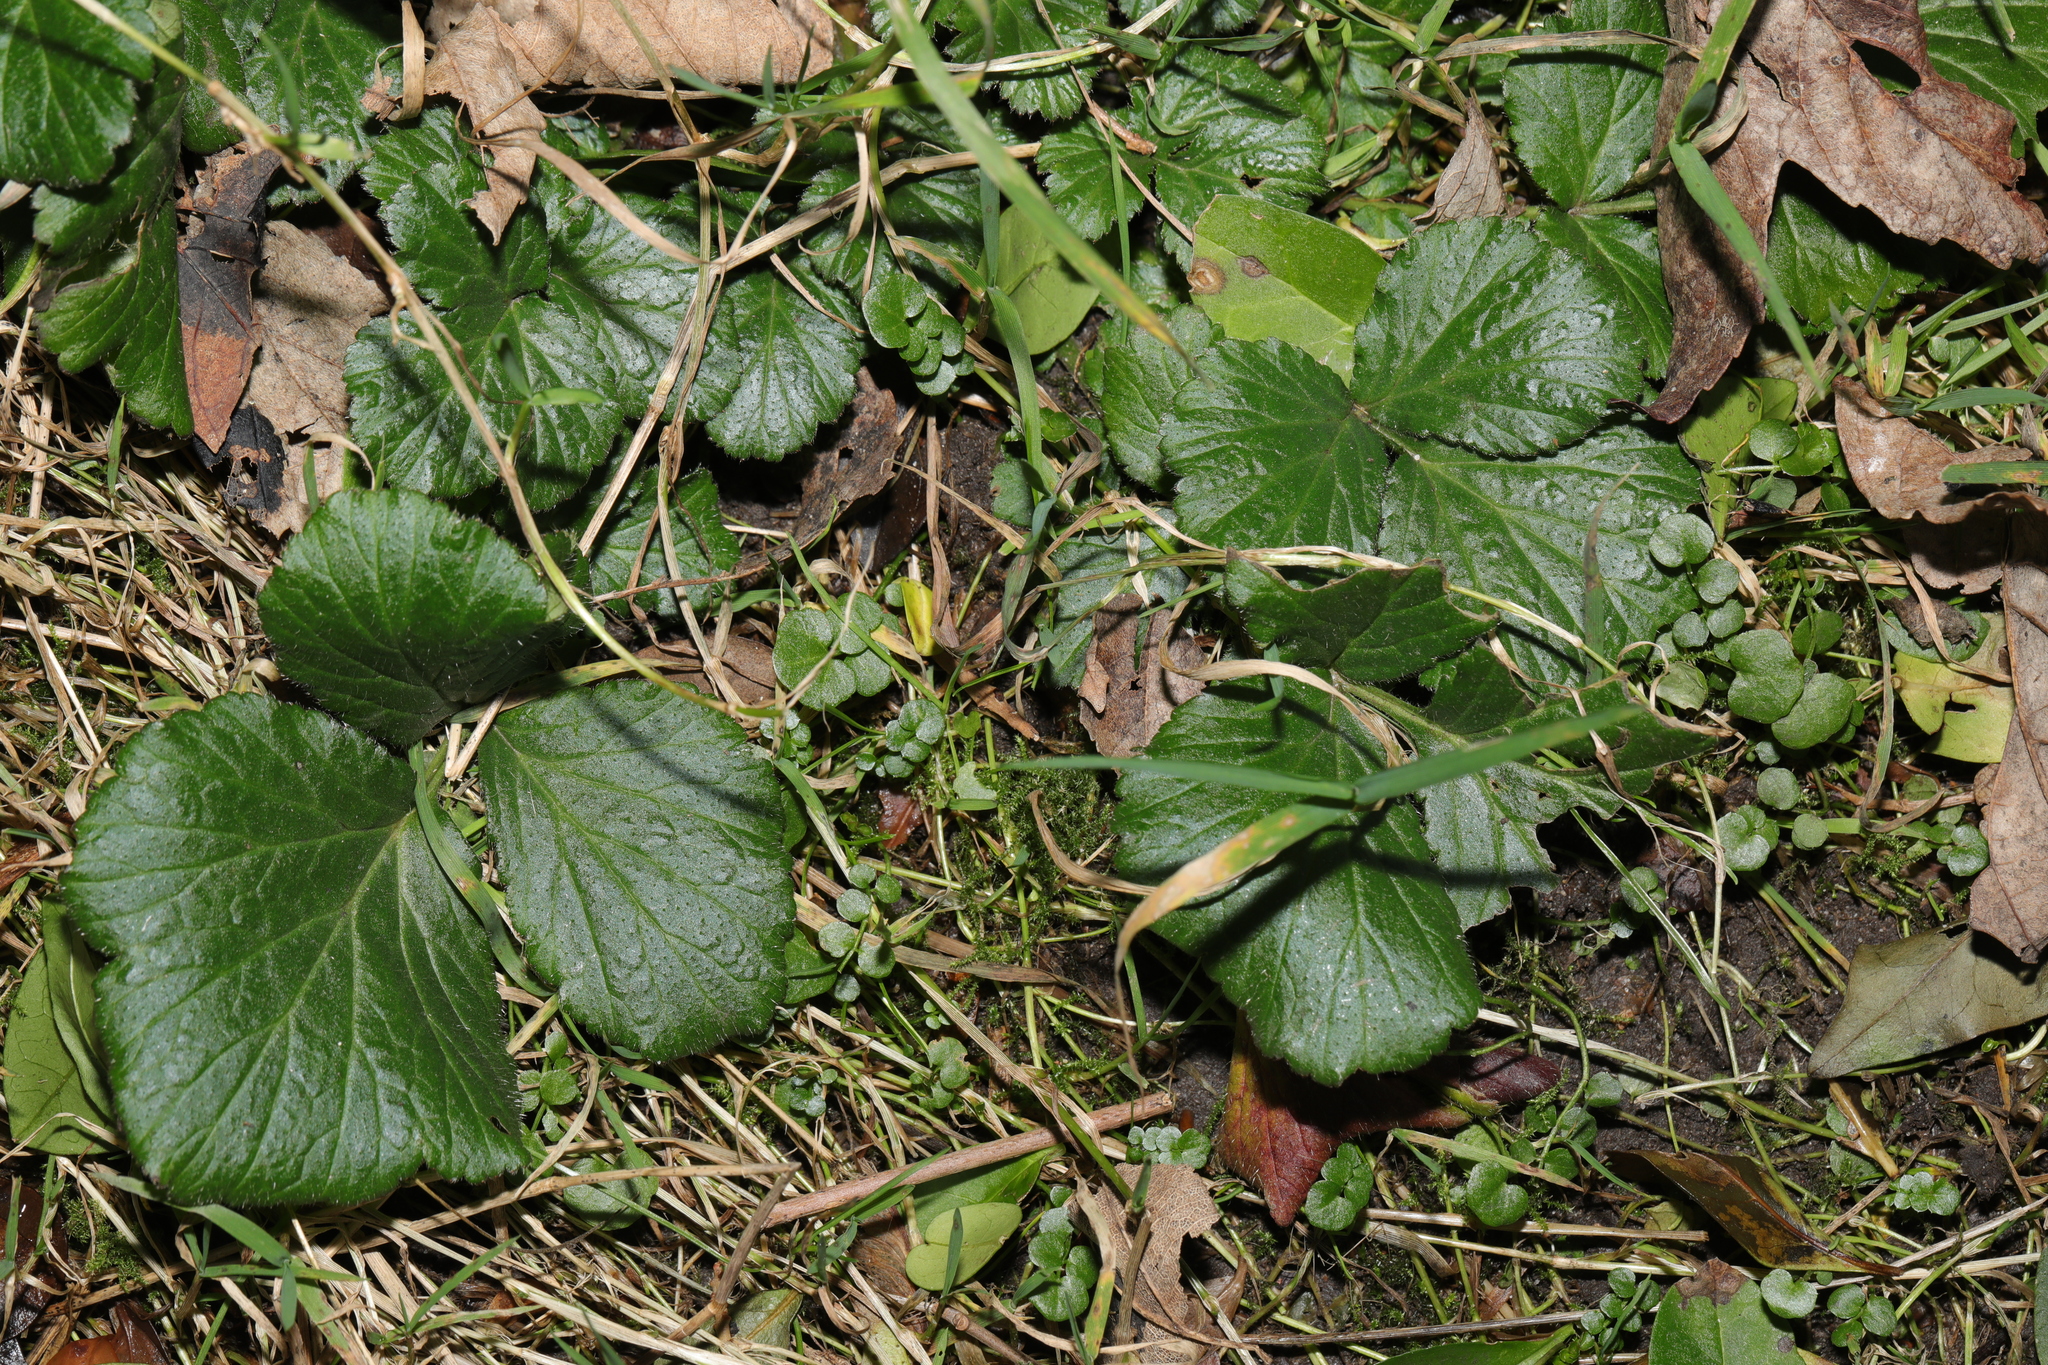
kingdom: Plantae
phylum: Tracheophyta
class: Magnoliopsida
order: Rosales
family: Rosaceae
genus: Geum
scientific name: Geum urbanum
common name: Wood avens
